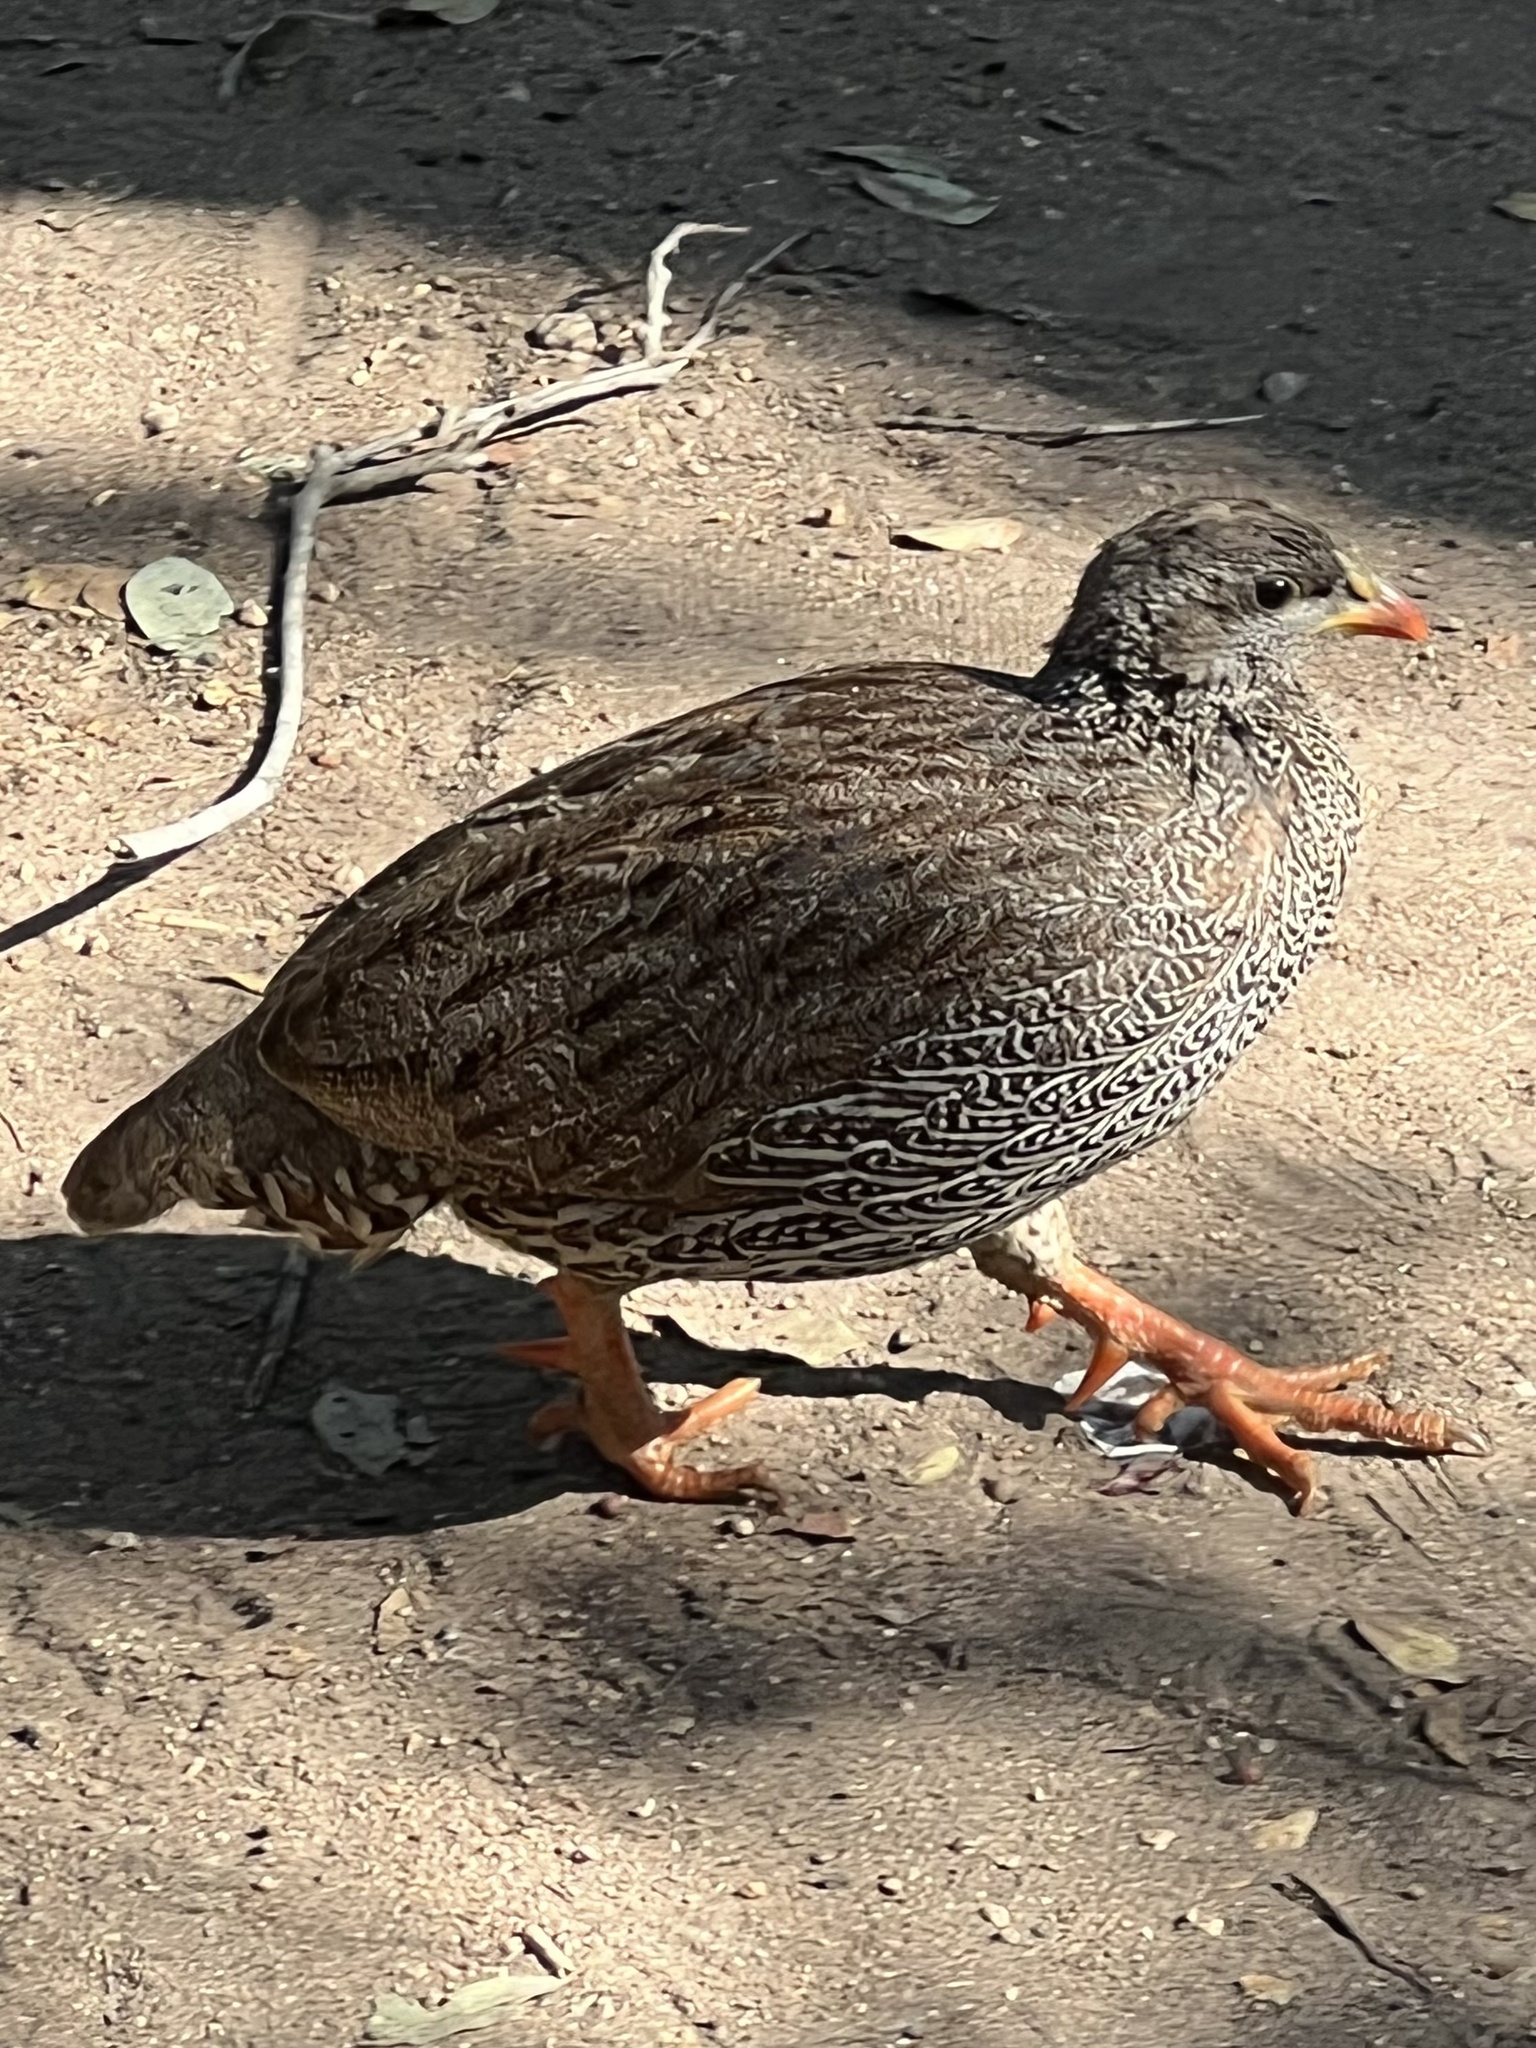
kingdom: Animalia
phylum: Chordata
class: Aves
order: Galliformes
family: Phasianidae
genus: Pternistis
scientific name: Pternistis natalensis
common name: Natal spurfowl
